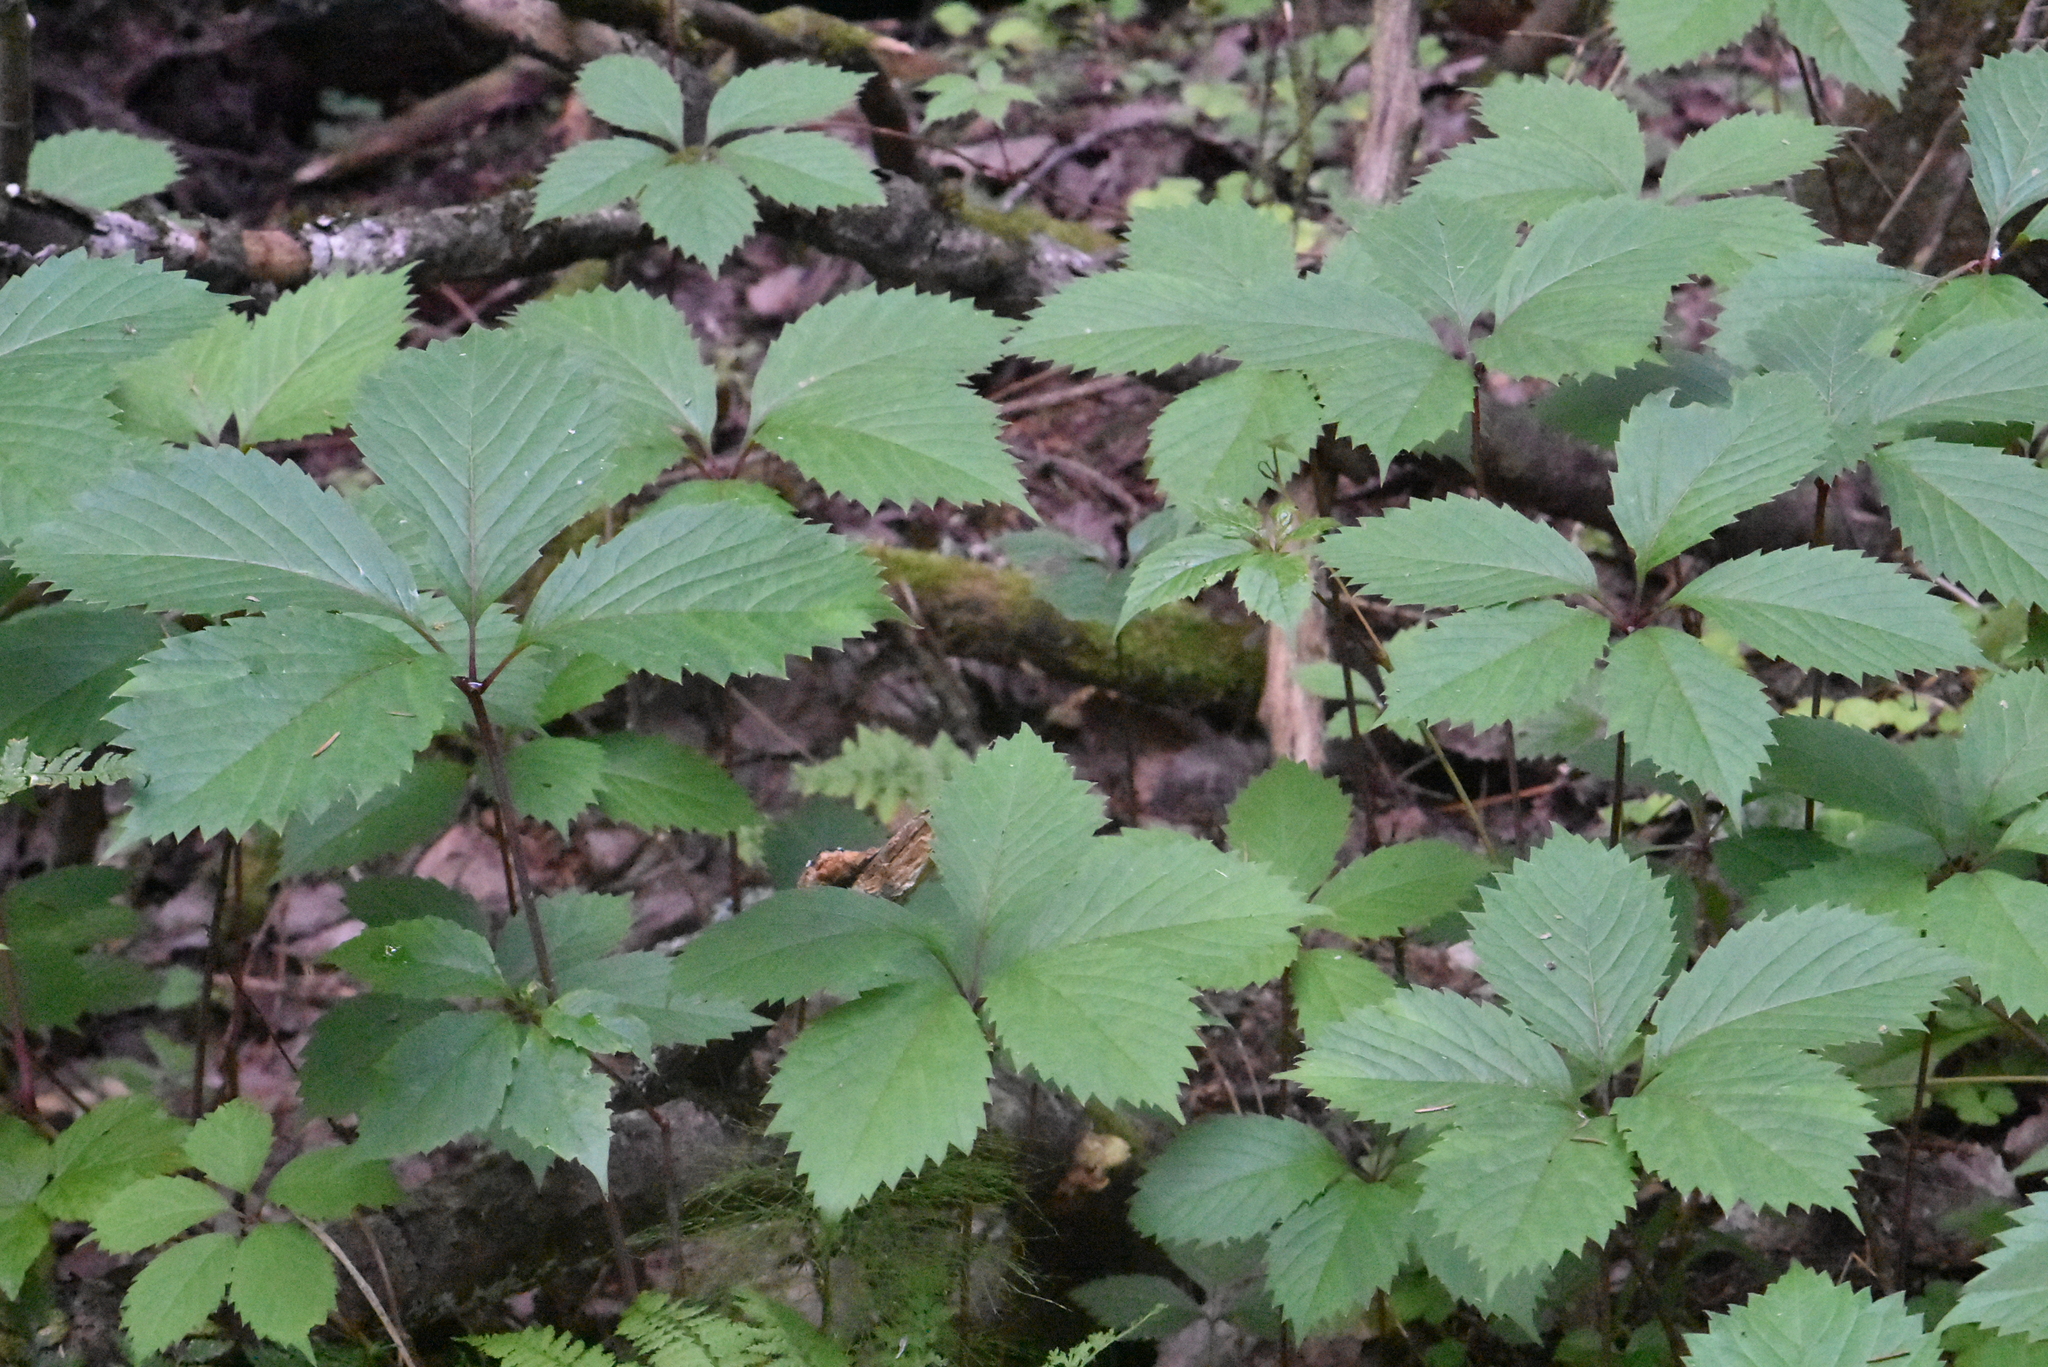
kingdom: Plantae
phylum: Tracheophyta
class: Magnoliopsida
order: Vitales
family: Vitaceae
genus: Parthenocissus
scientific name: Parthenocissus inserta
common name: False virginia-creeper
